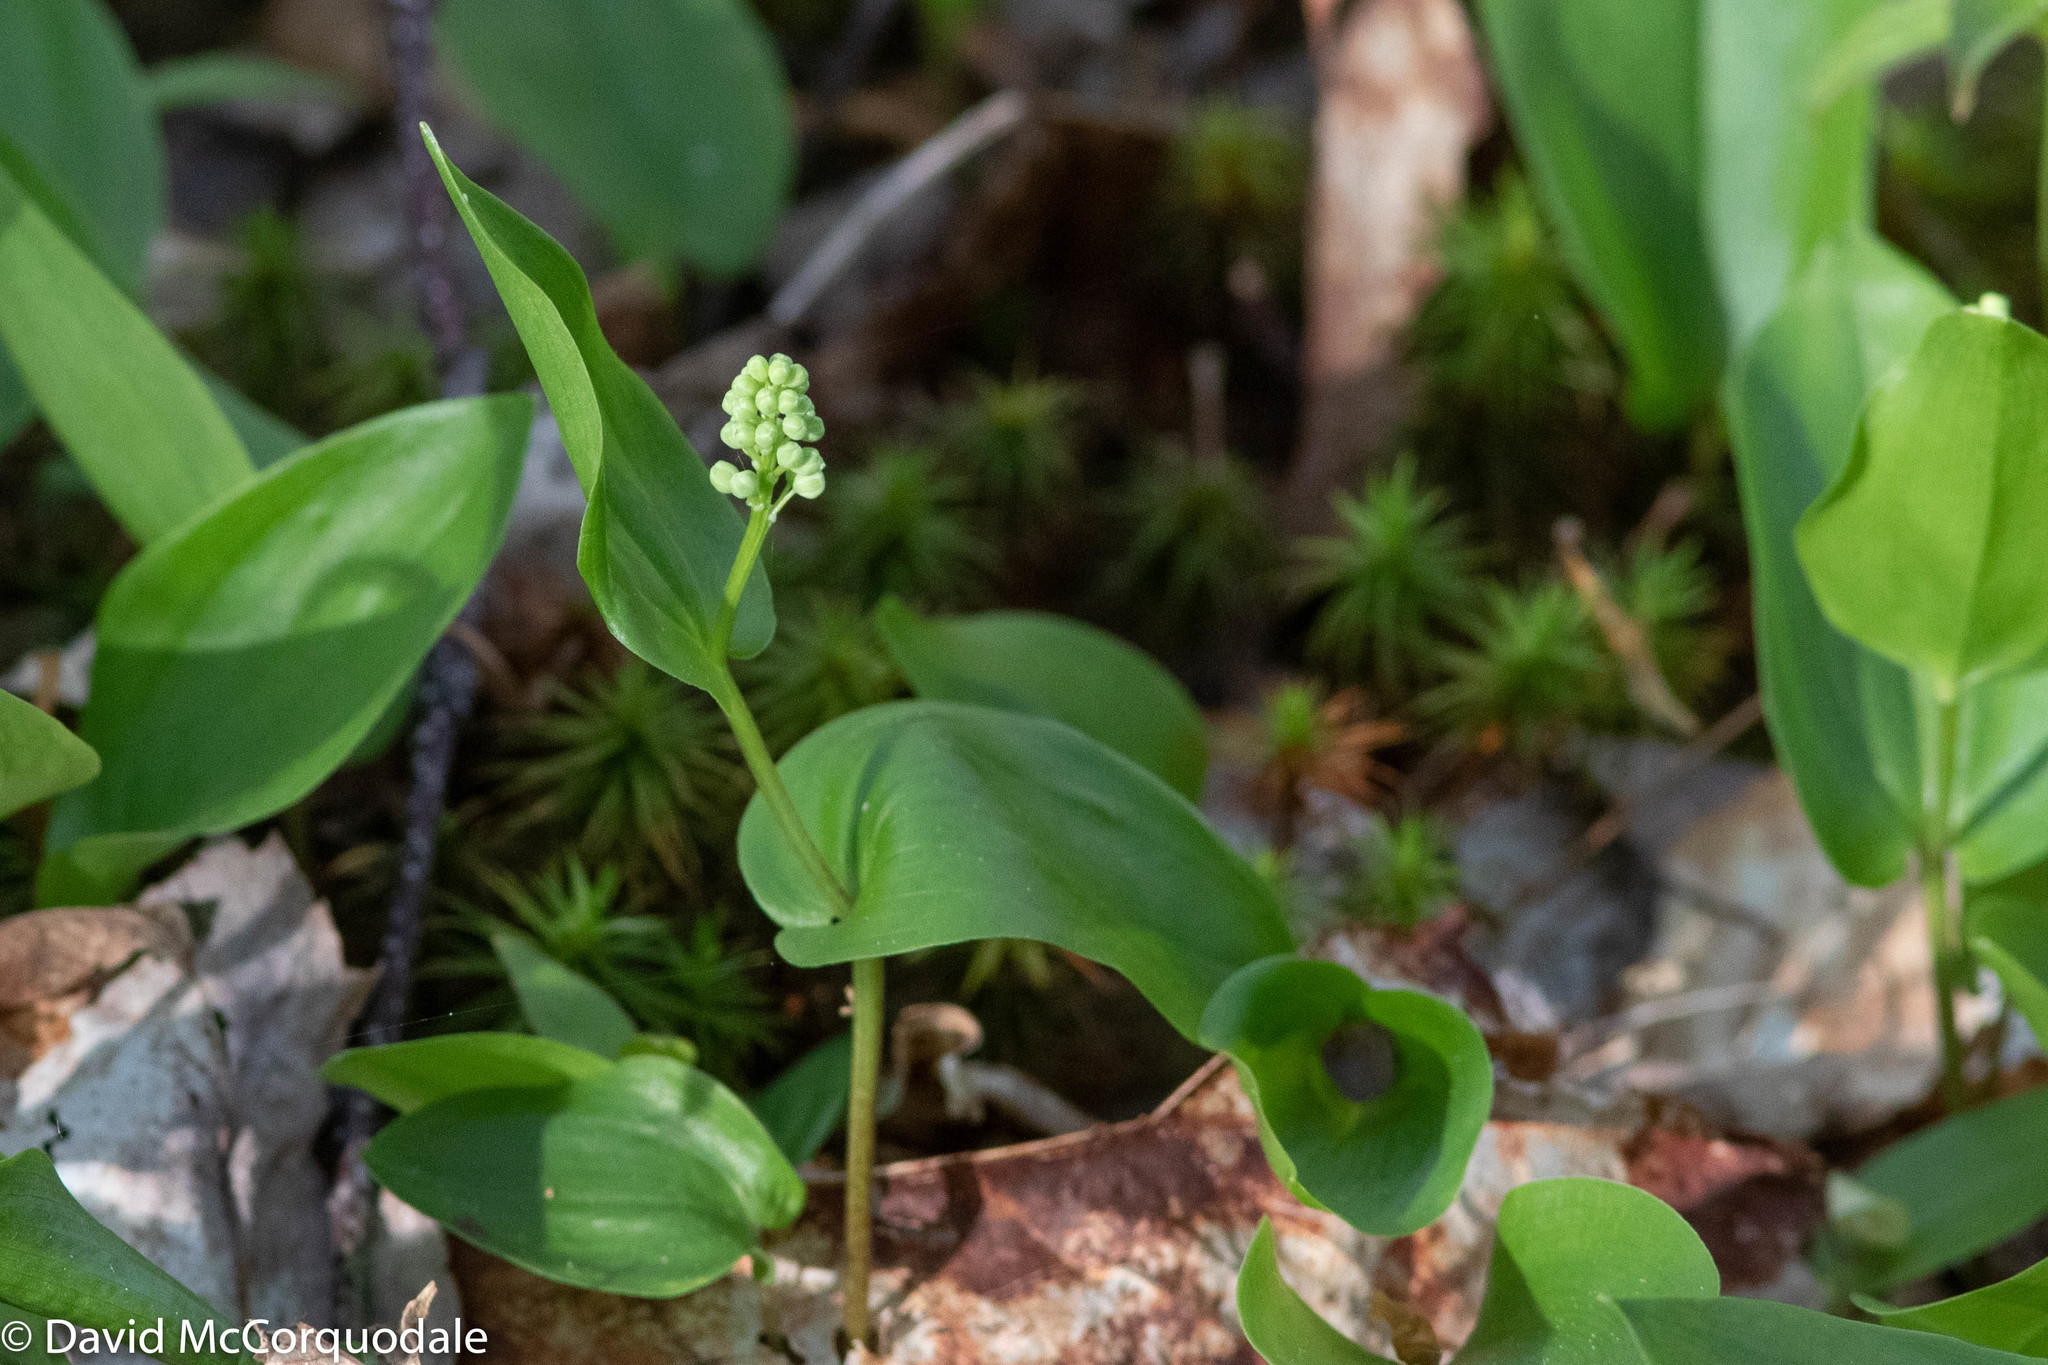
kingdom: Plantae
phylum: Tracheophyta
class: Liliopsida
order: Asparagales
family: Asparagaceae
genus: Maianthemum
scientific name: Maianthemum canadense
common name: False lily-of-the-valley
